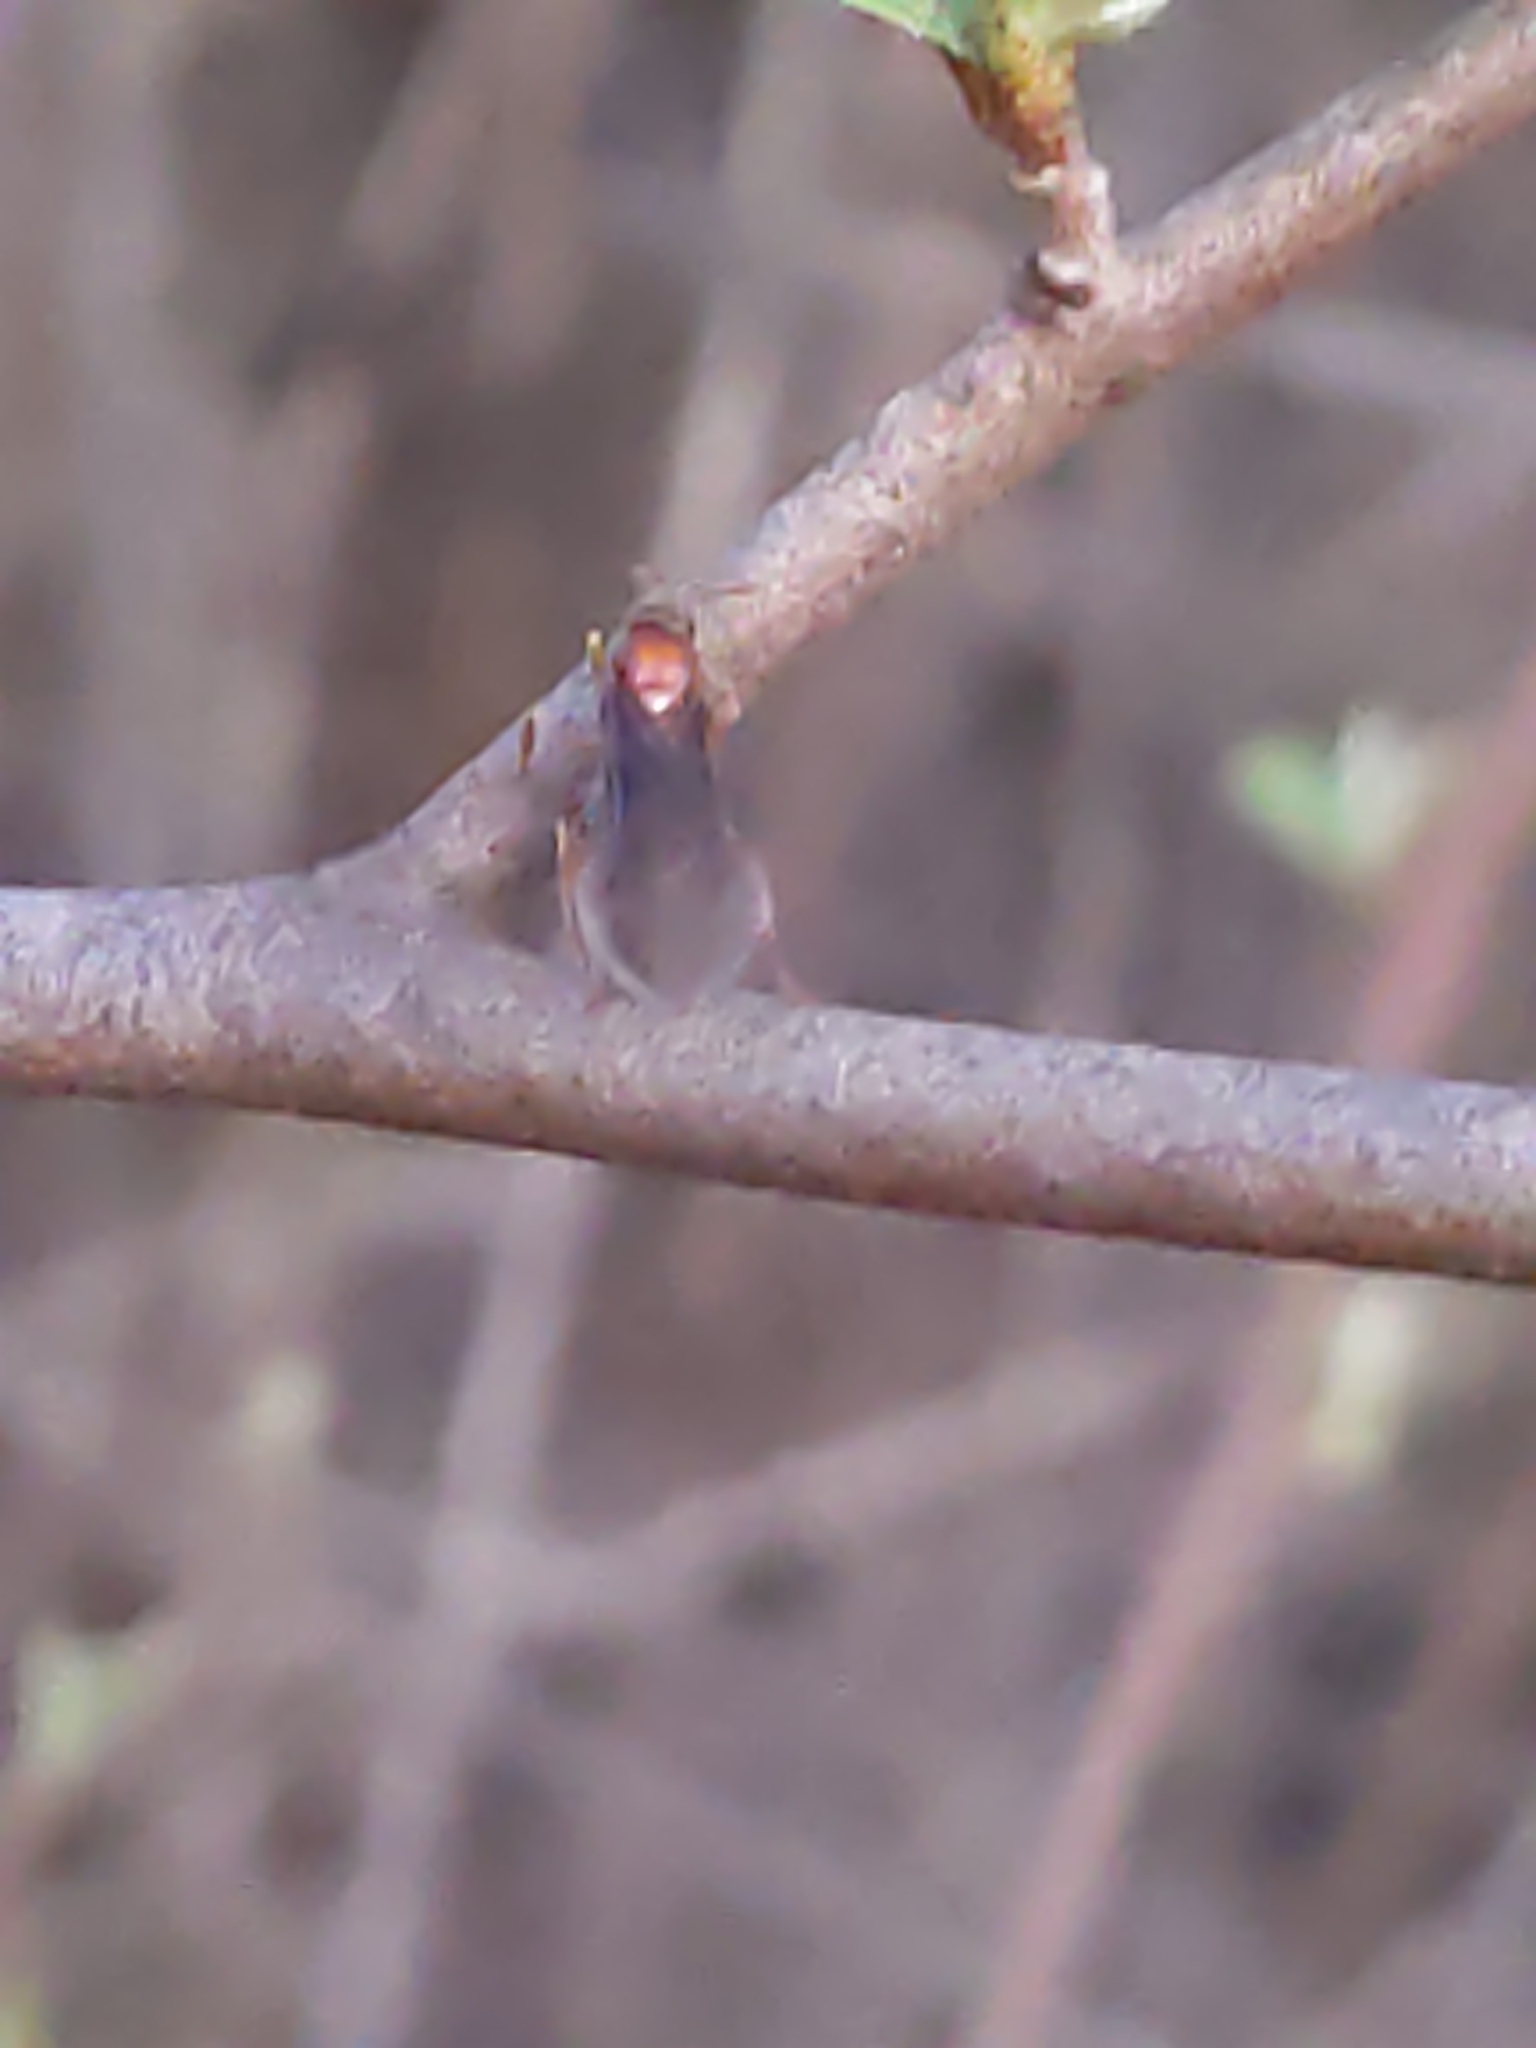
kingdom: Animalia
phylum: Arthropoda
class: Insecta
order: Hymenoptera
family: Formicidae
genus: Prenolepis
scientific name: Prenolepis imparis
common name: Small honey ant
